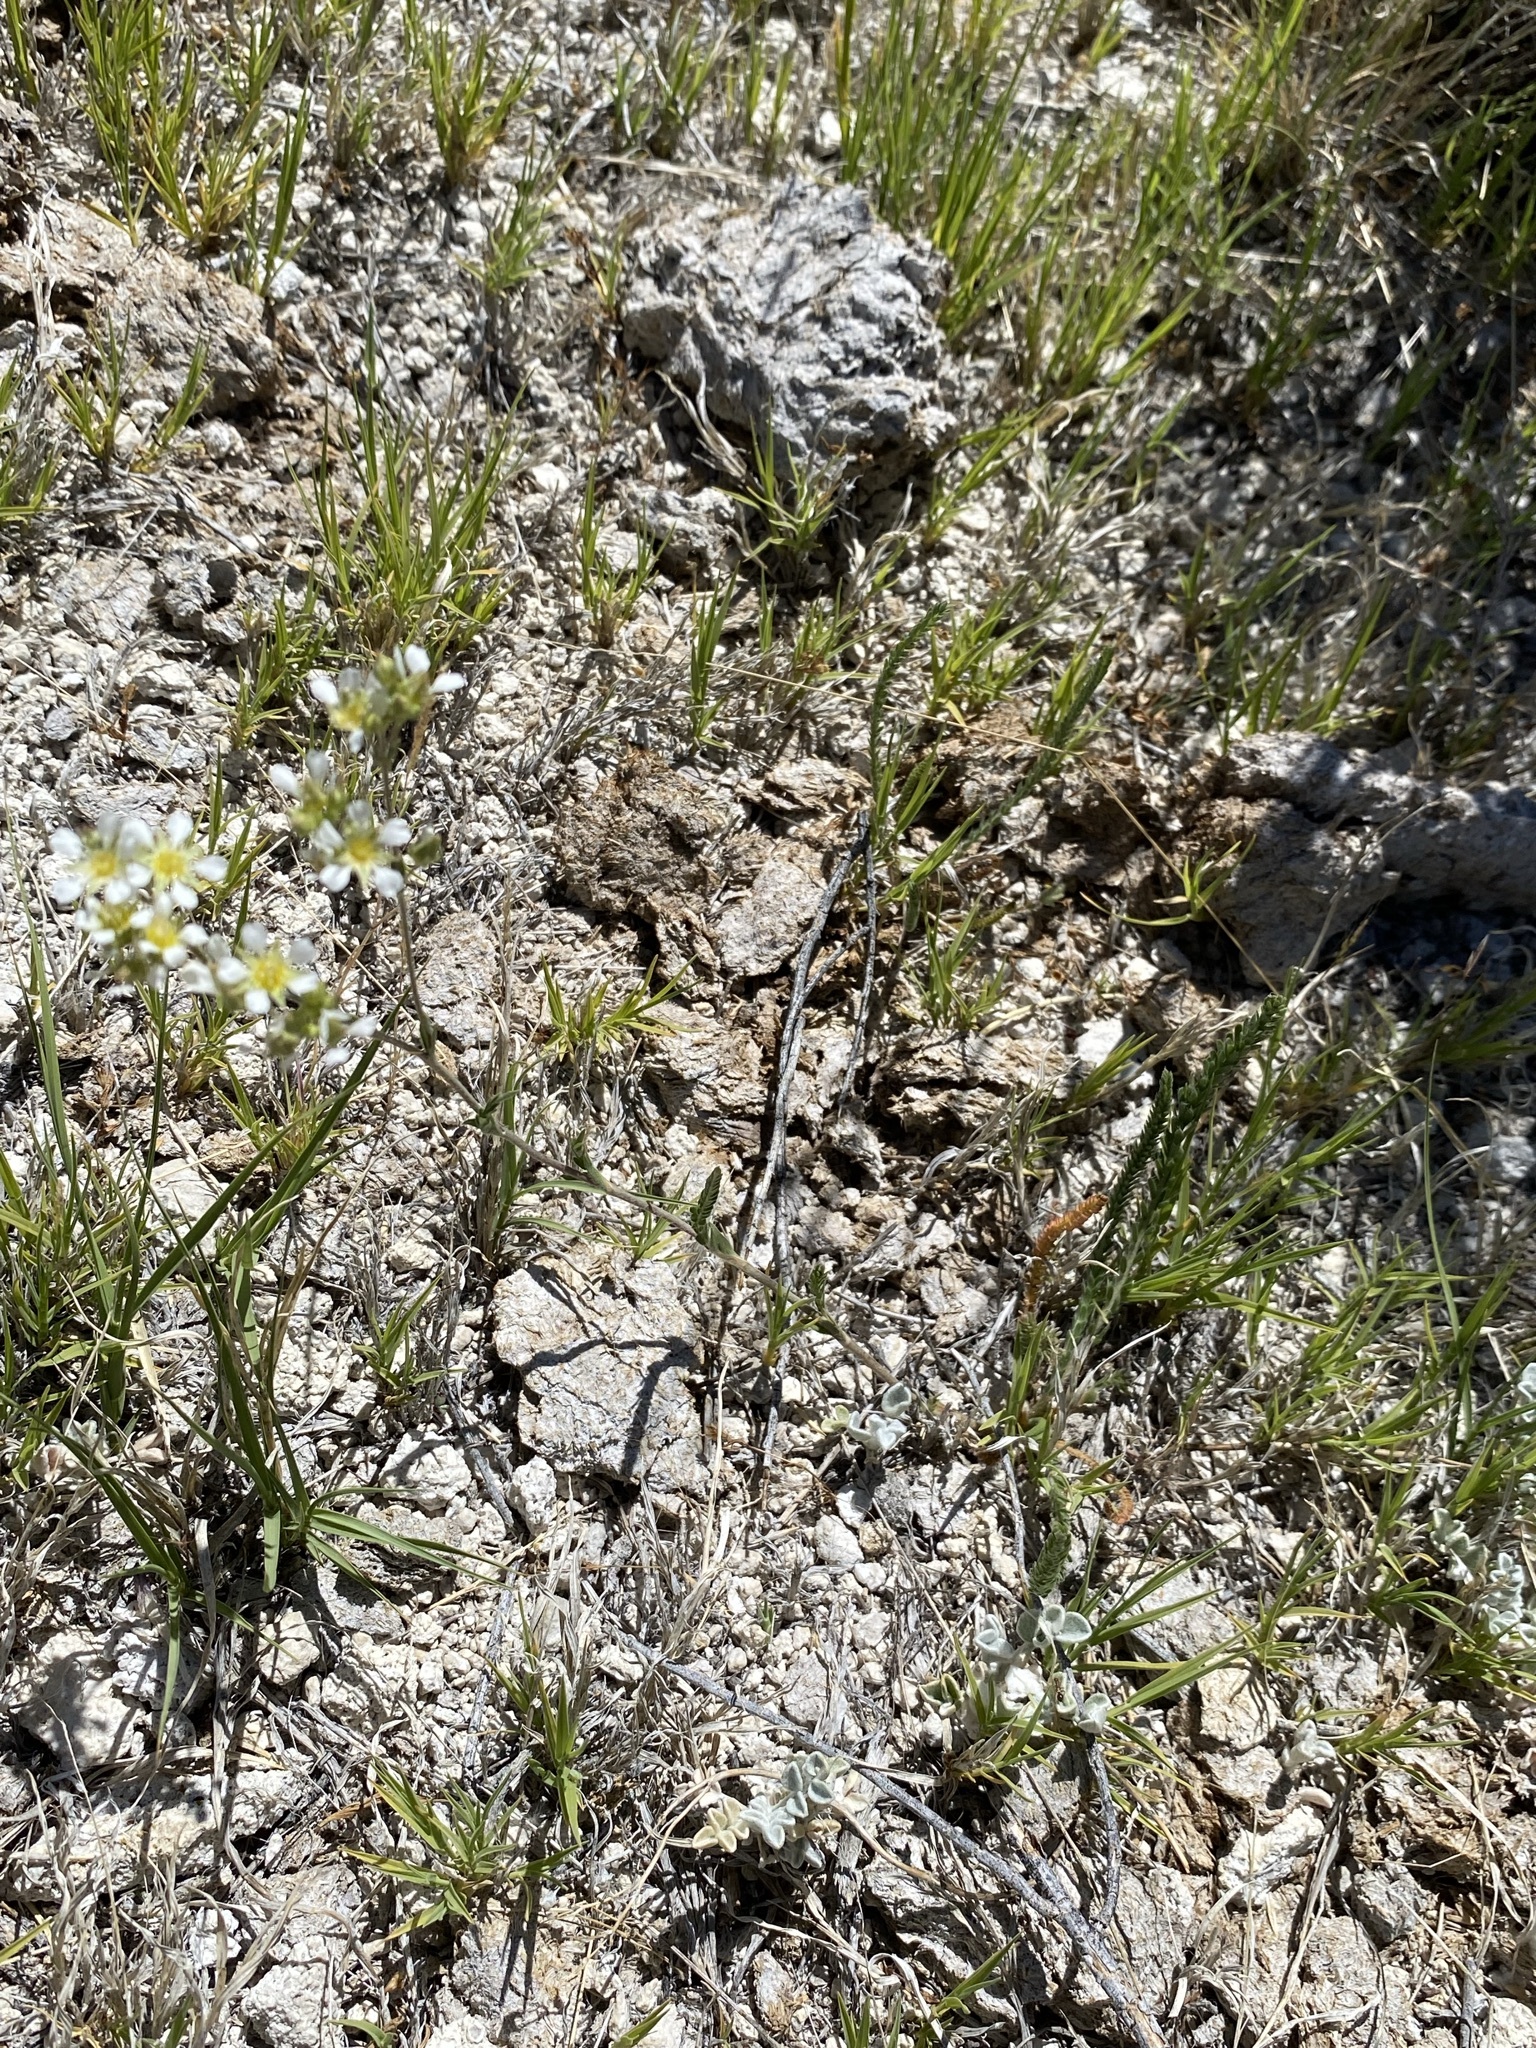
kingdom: Plantae
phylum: Tracheophyta
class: Magnoliopsida
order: Rosales
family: Rosaceae
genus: Potentilla
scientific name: Potentilla kingii
